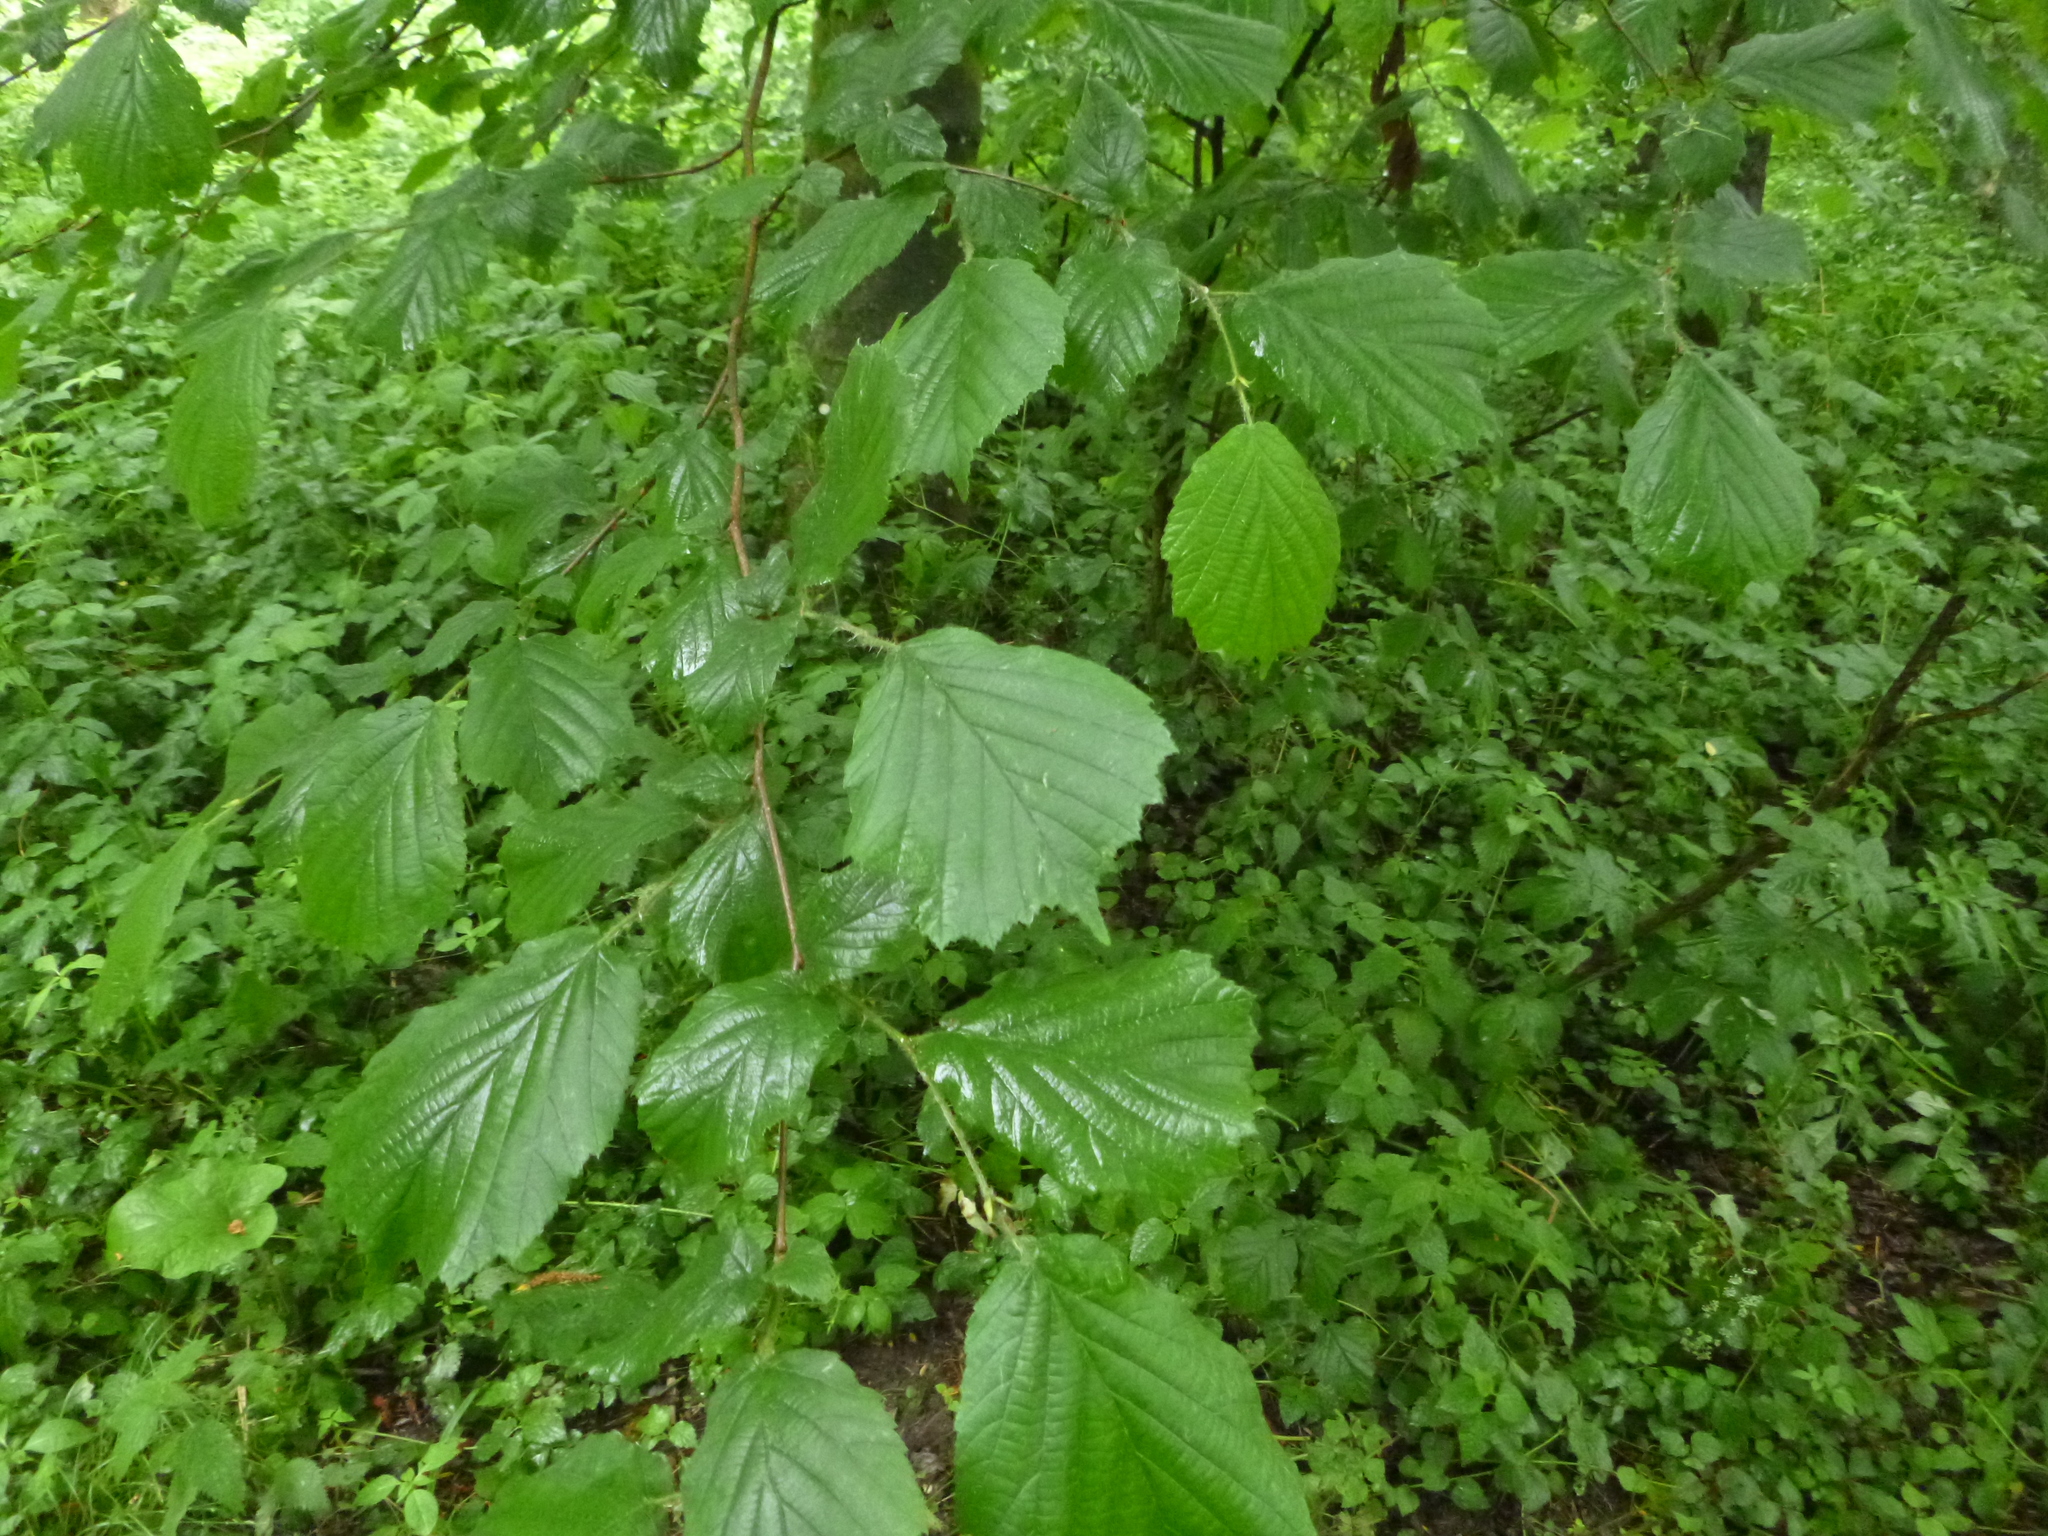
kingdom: Plantae
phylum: Tracheophyta
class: Magnoliopsida
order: Fagales
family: Betulaceae
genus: Corylus
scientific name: Corylus avellana
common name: European hazel
